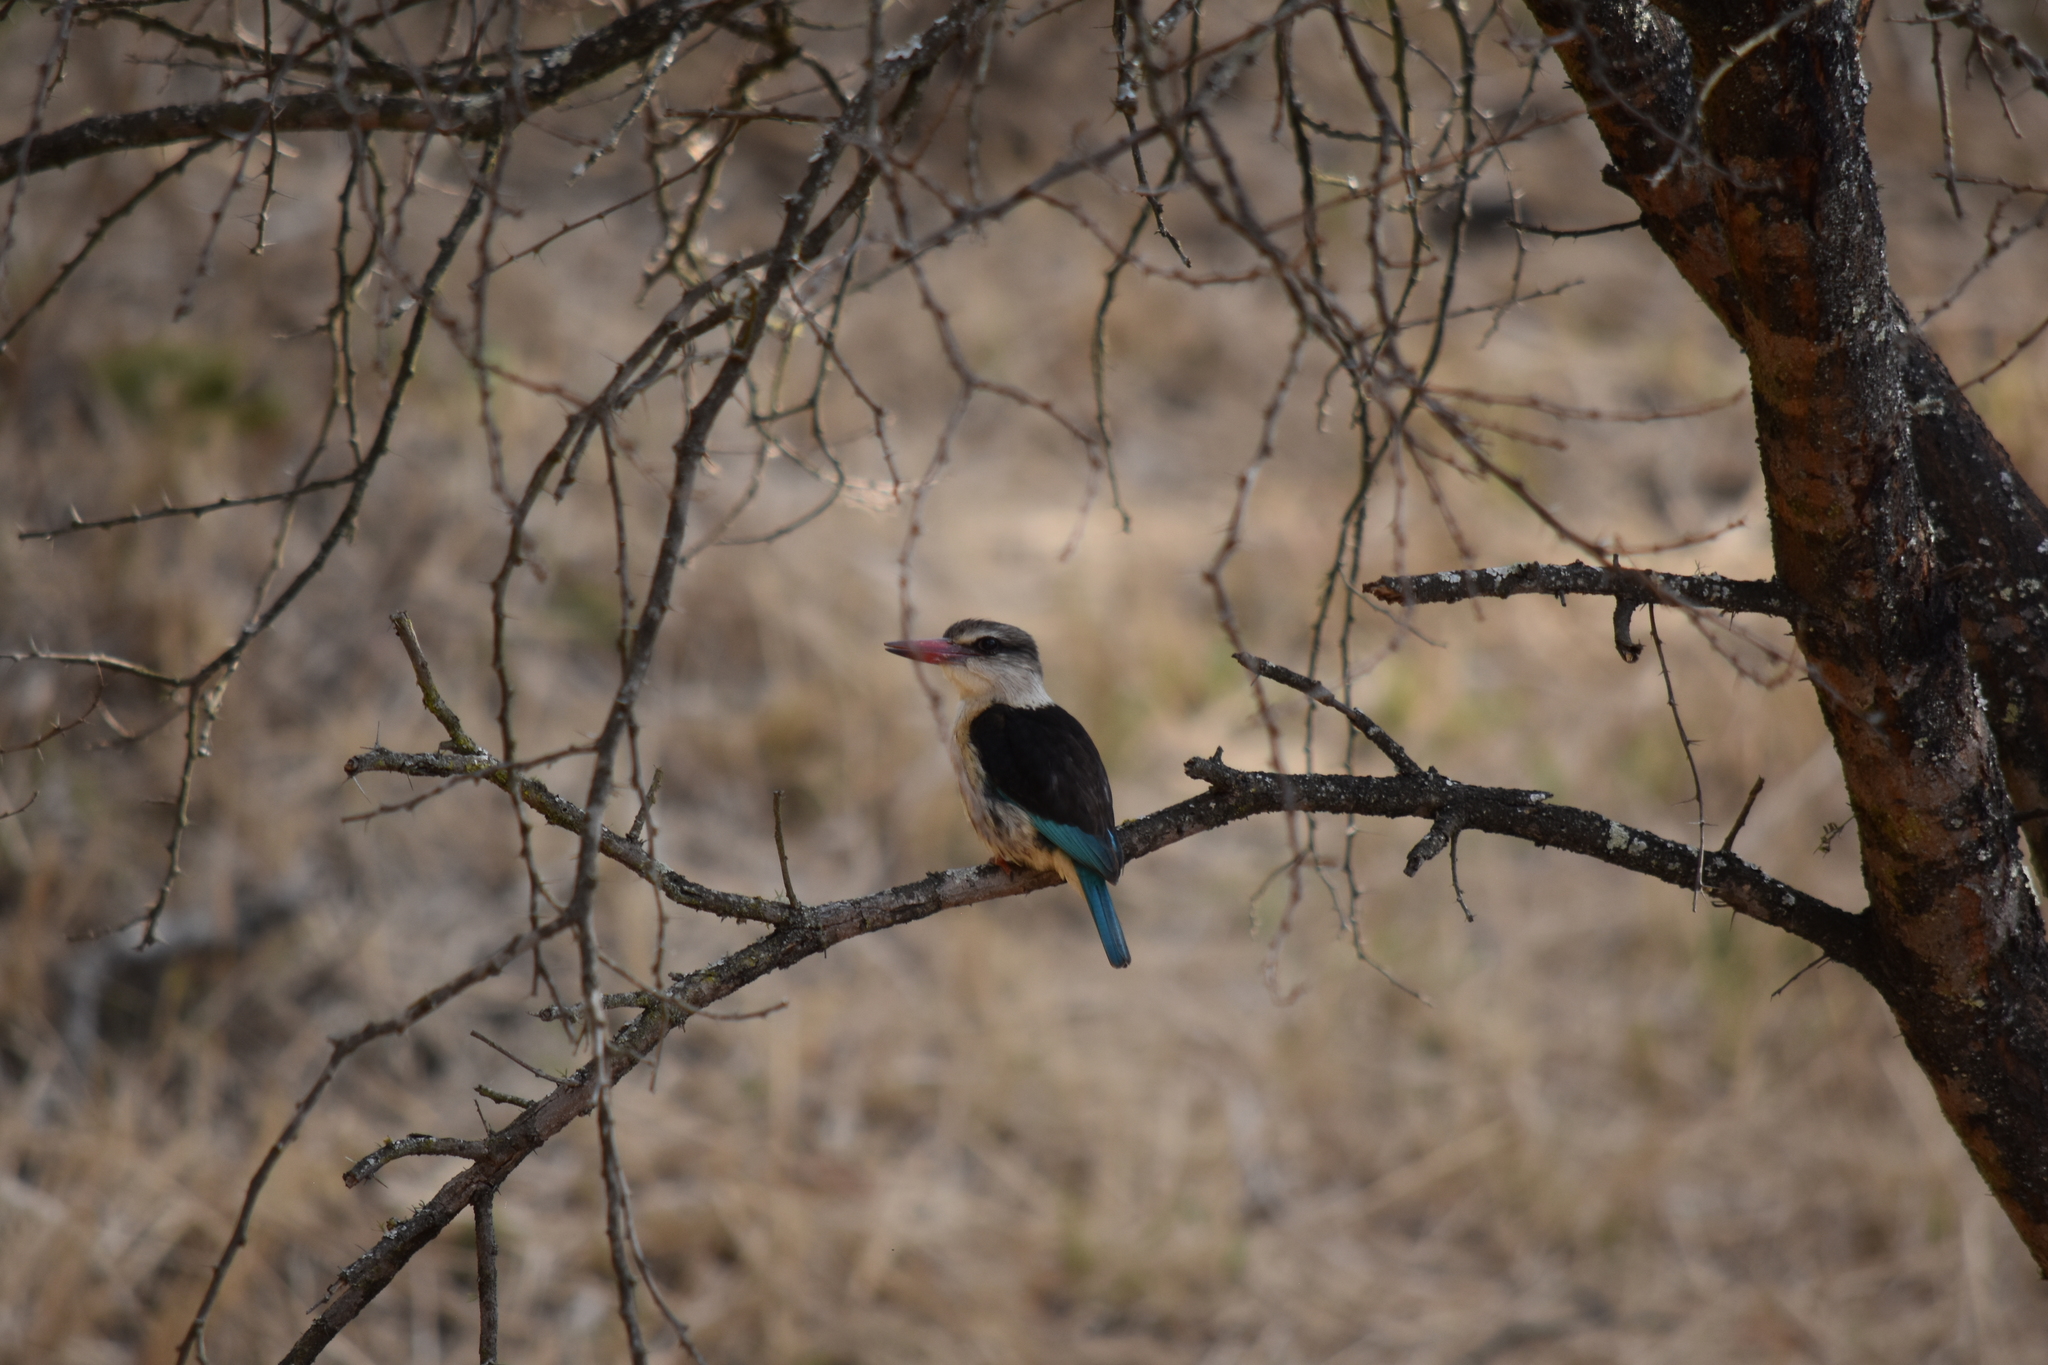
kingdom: Animalia
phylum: Chordata
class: Aves
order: Coraciiformes
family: Alcedinidae
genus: Halcyon
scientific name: Halcyon albiventris
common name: Brown-hooded kingfisher
